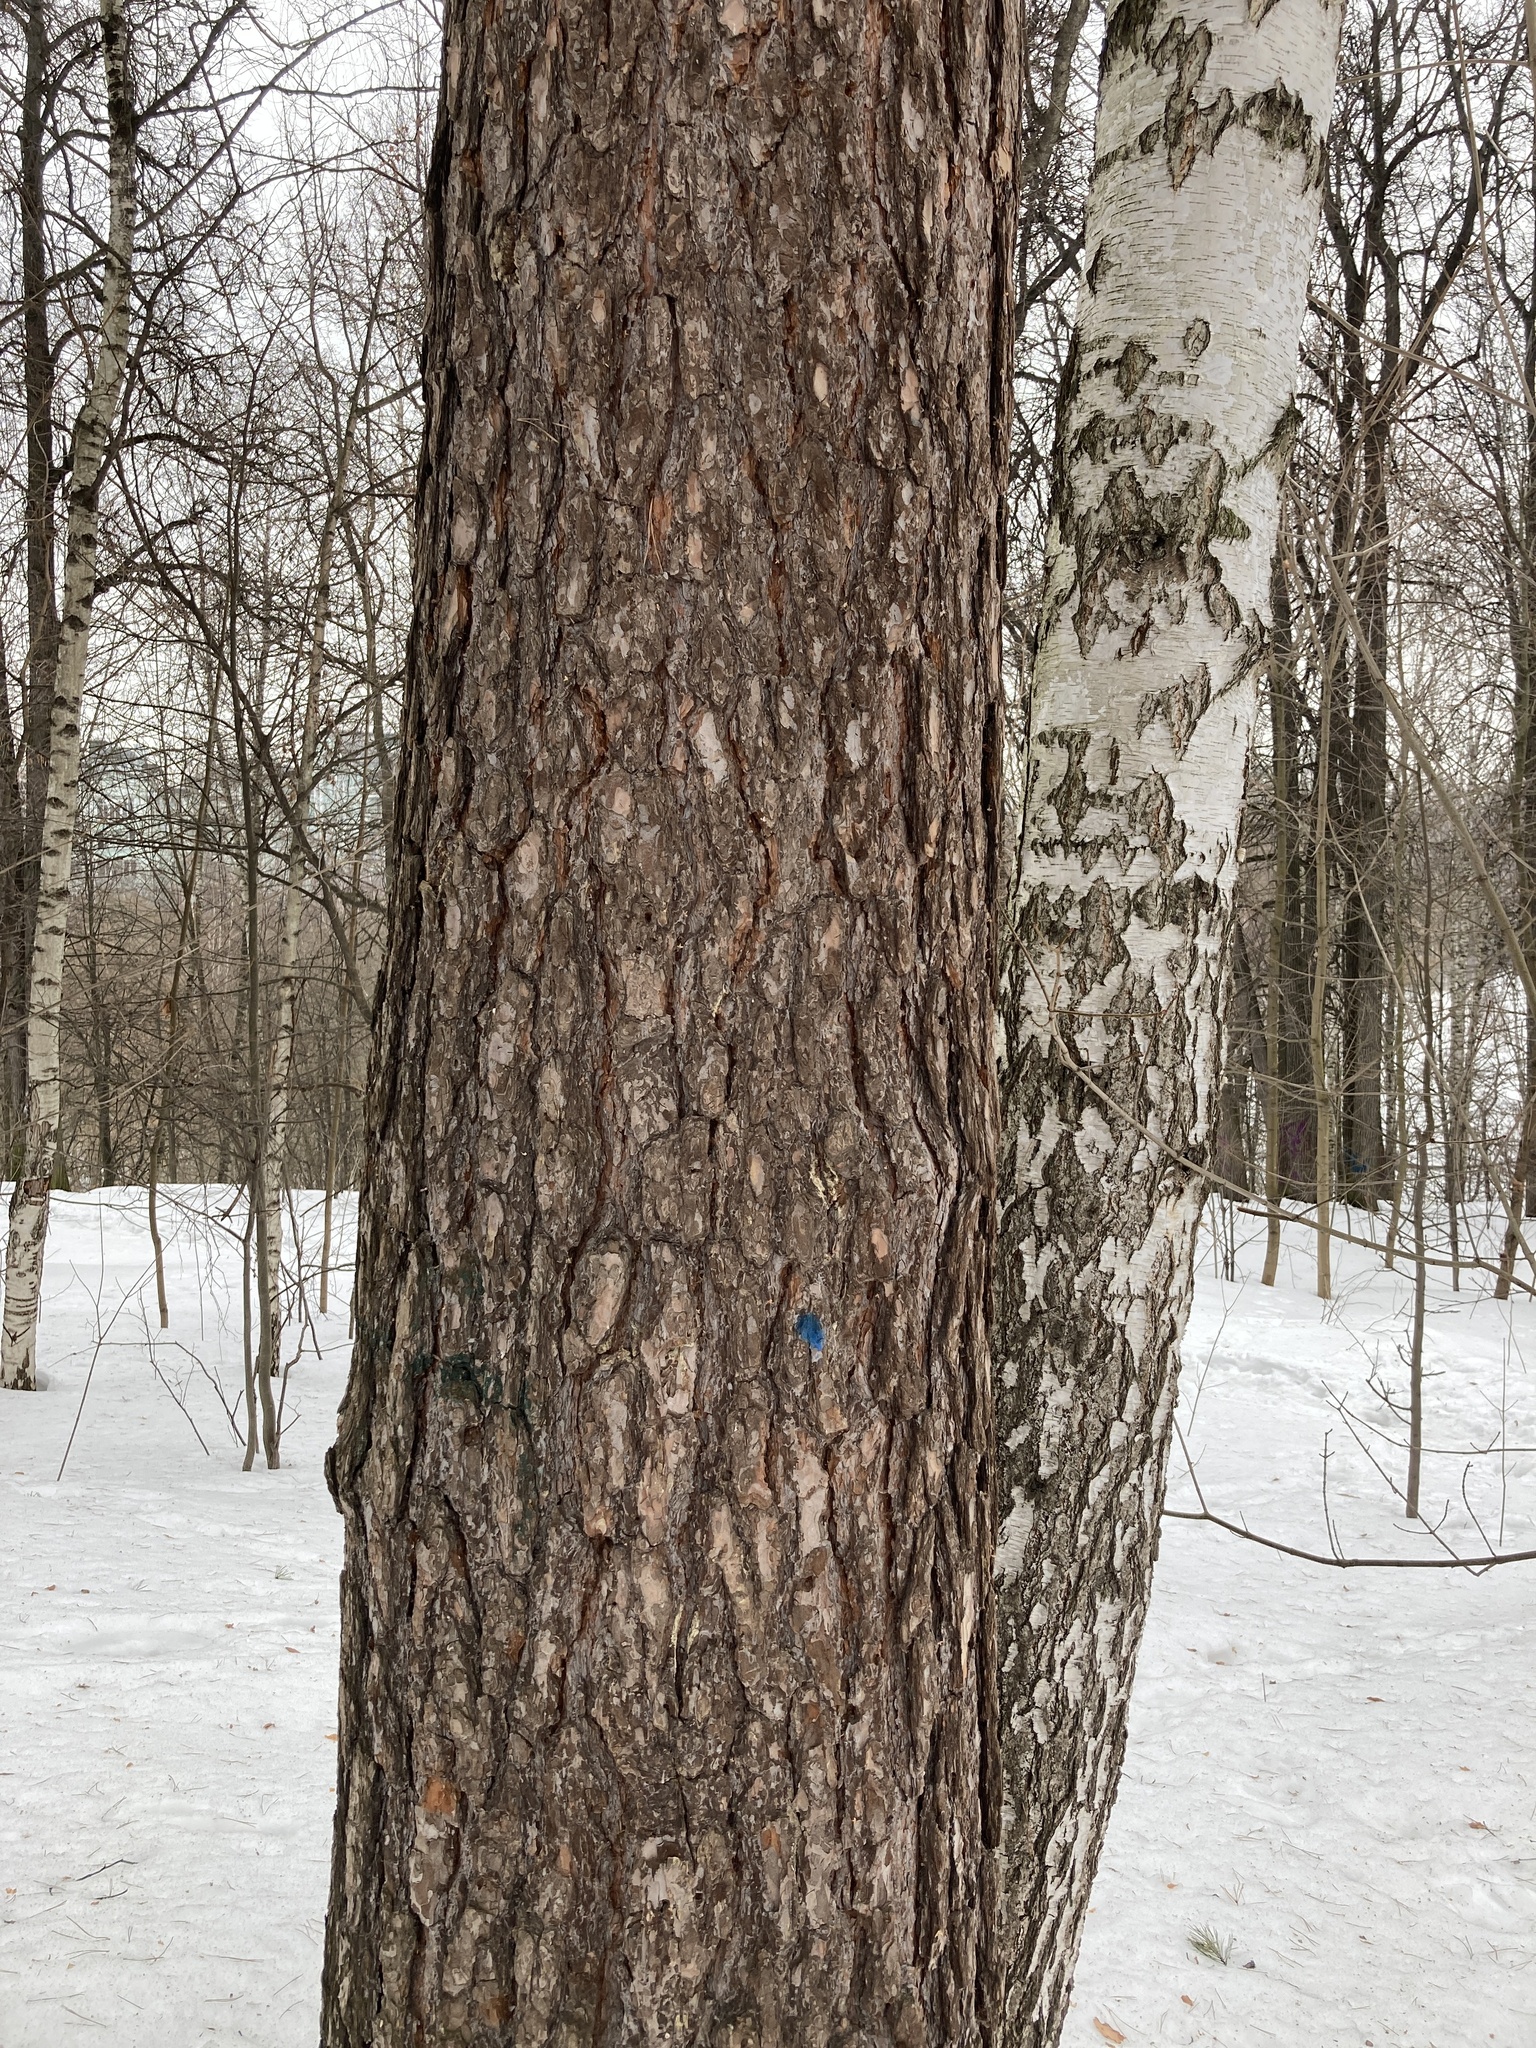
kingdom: Plantae
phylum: Tracheophyta
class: Pinopsida
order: Pinales
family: Pinaceae
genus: Pinus
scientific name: Pinus sylvestris
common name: Scots pine
